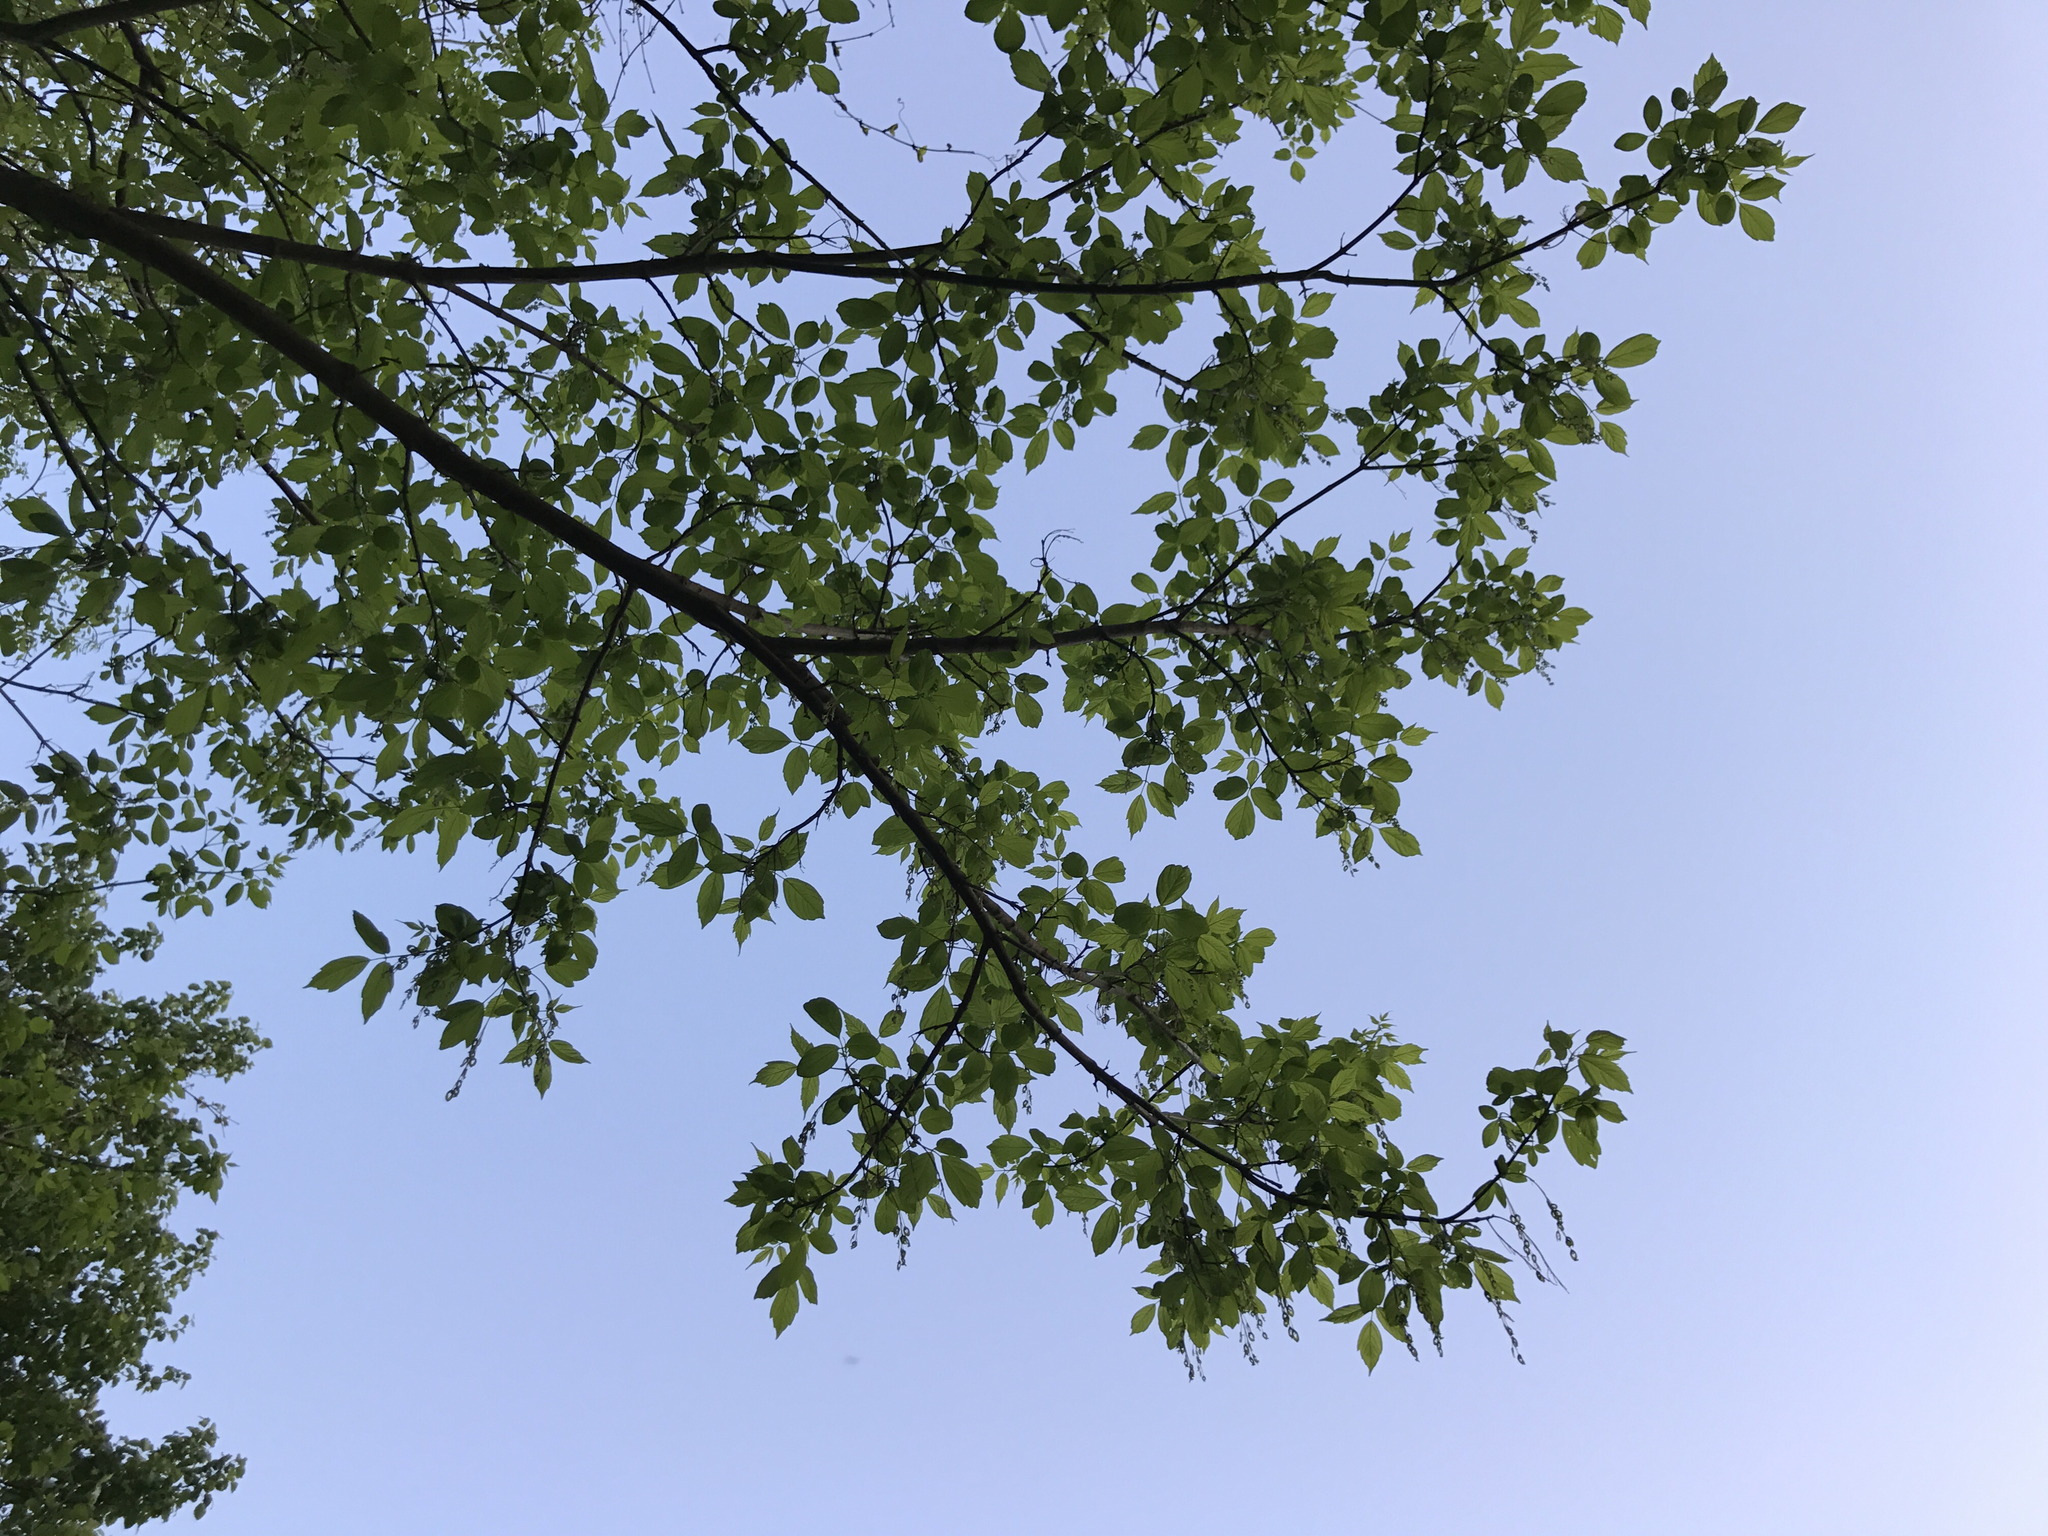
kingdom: Plantae
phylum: Tracheophyta
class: Magnoliopsida
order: Sapindales
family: Sapindaceae
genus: Acer
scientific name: Acer negundo
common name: Ashleaf maple
